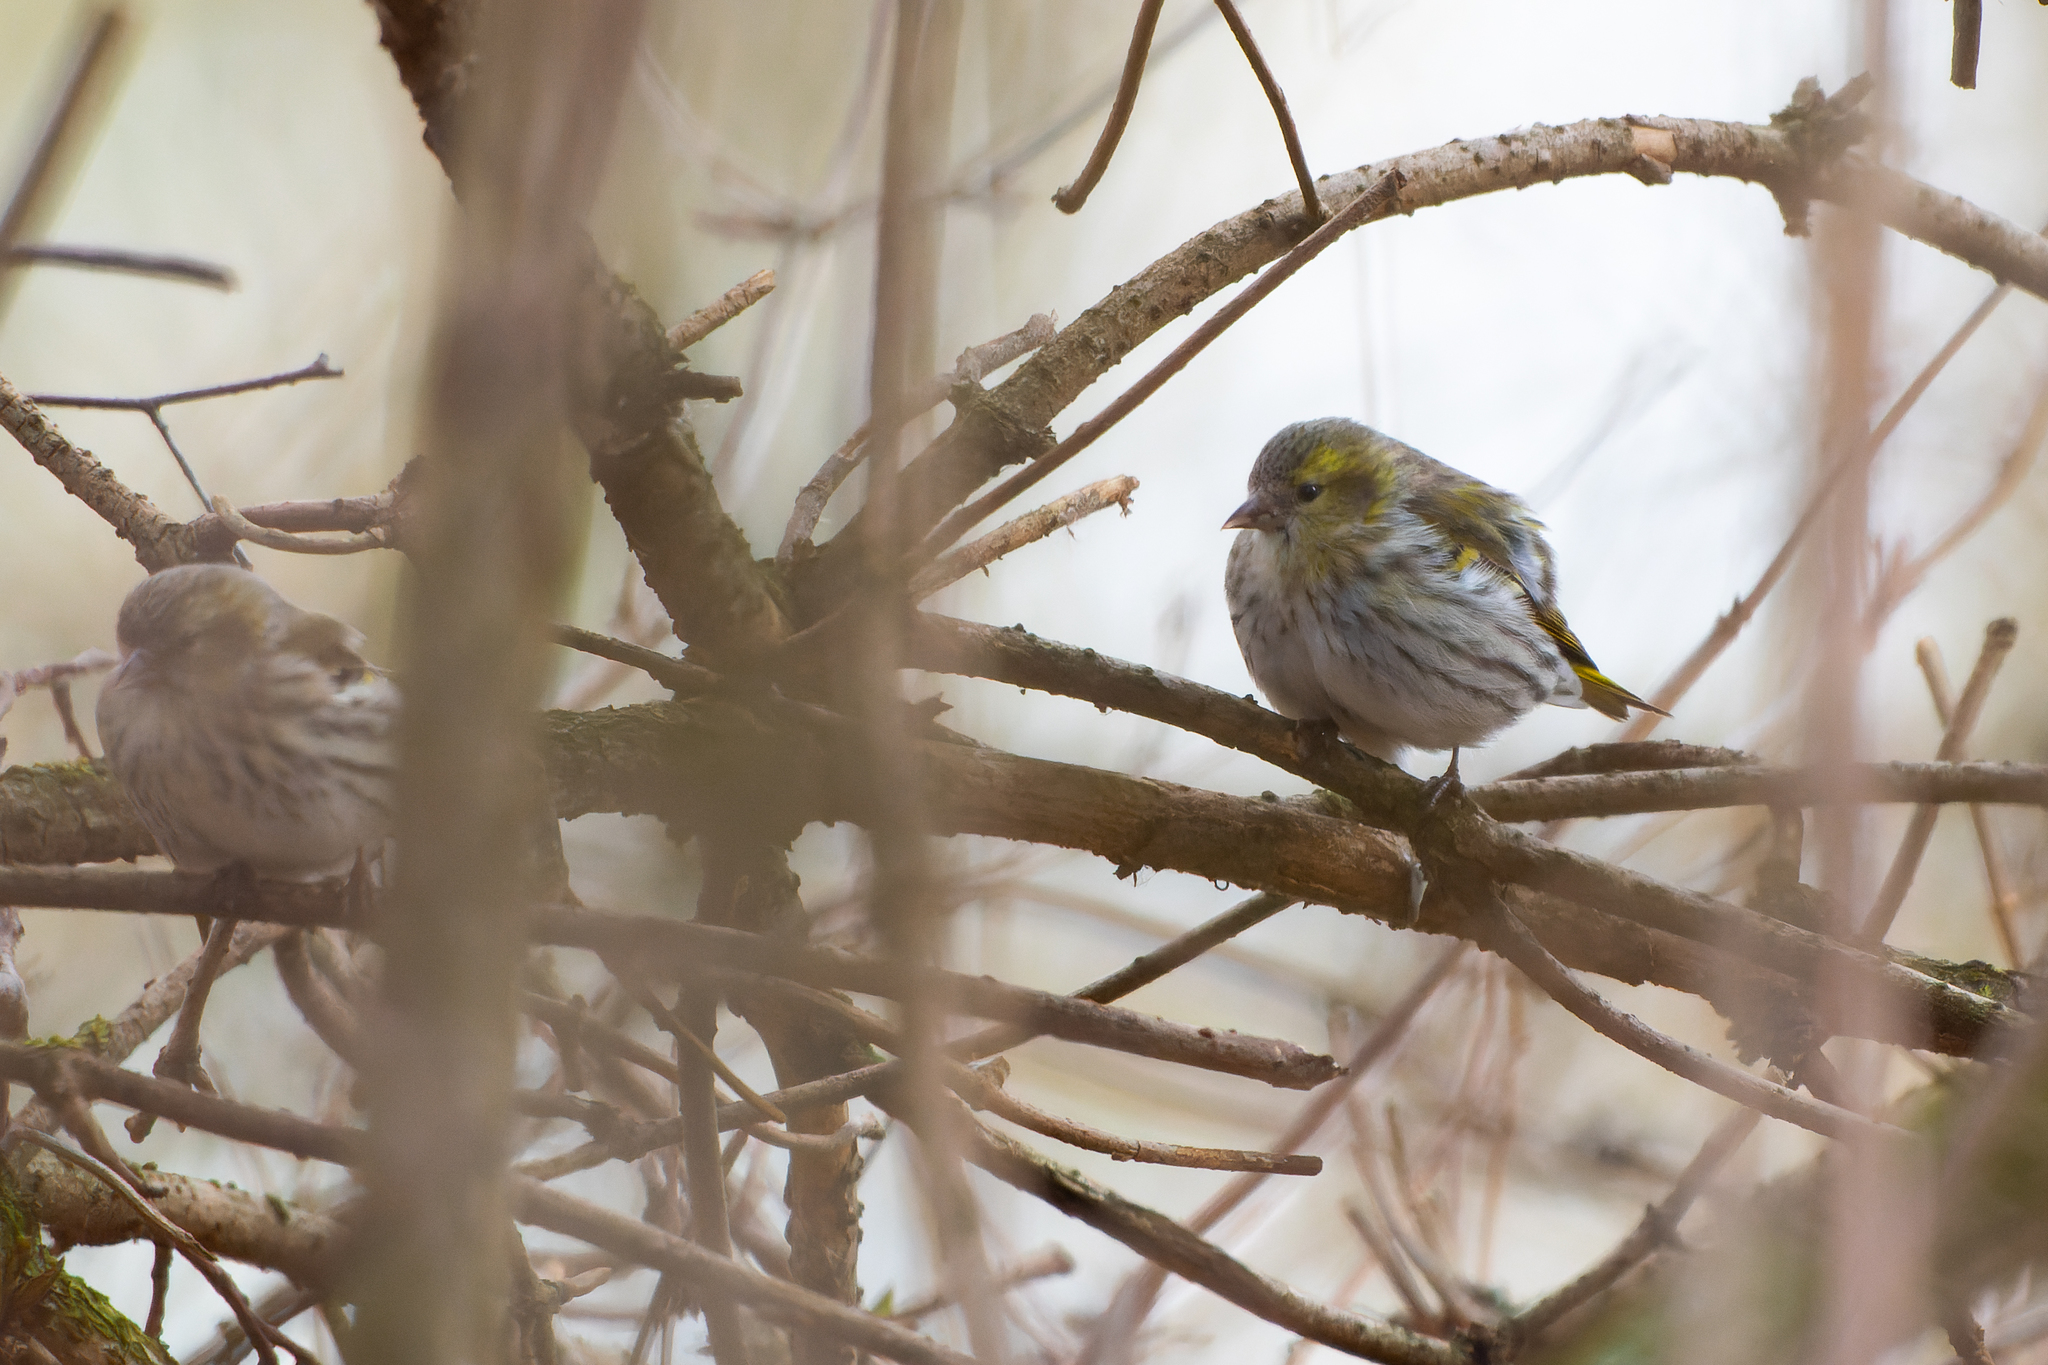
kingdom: Animalia
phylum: Chordata
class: Aves
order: Passeriformes
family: Fringillidae
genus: Spinus
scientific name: Spinus spinus
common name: Eurasian siskin
